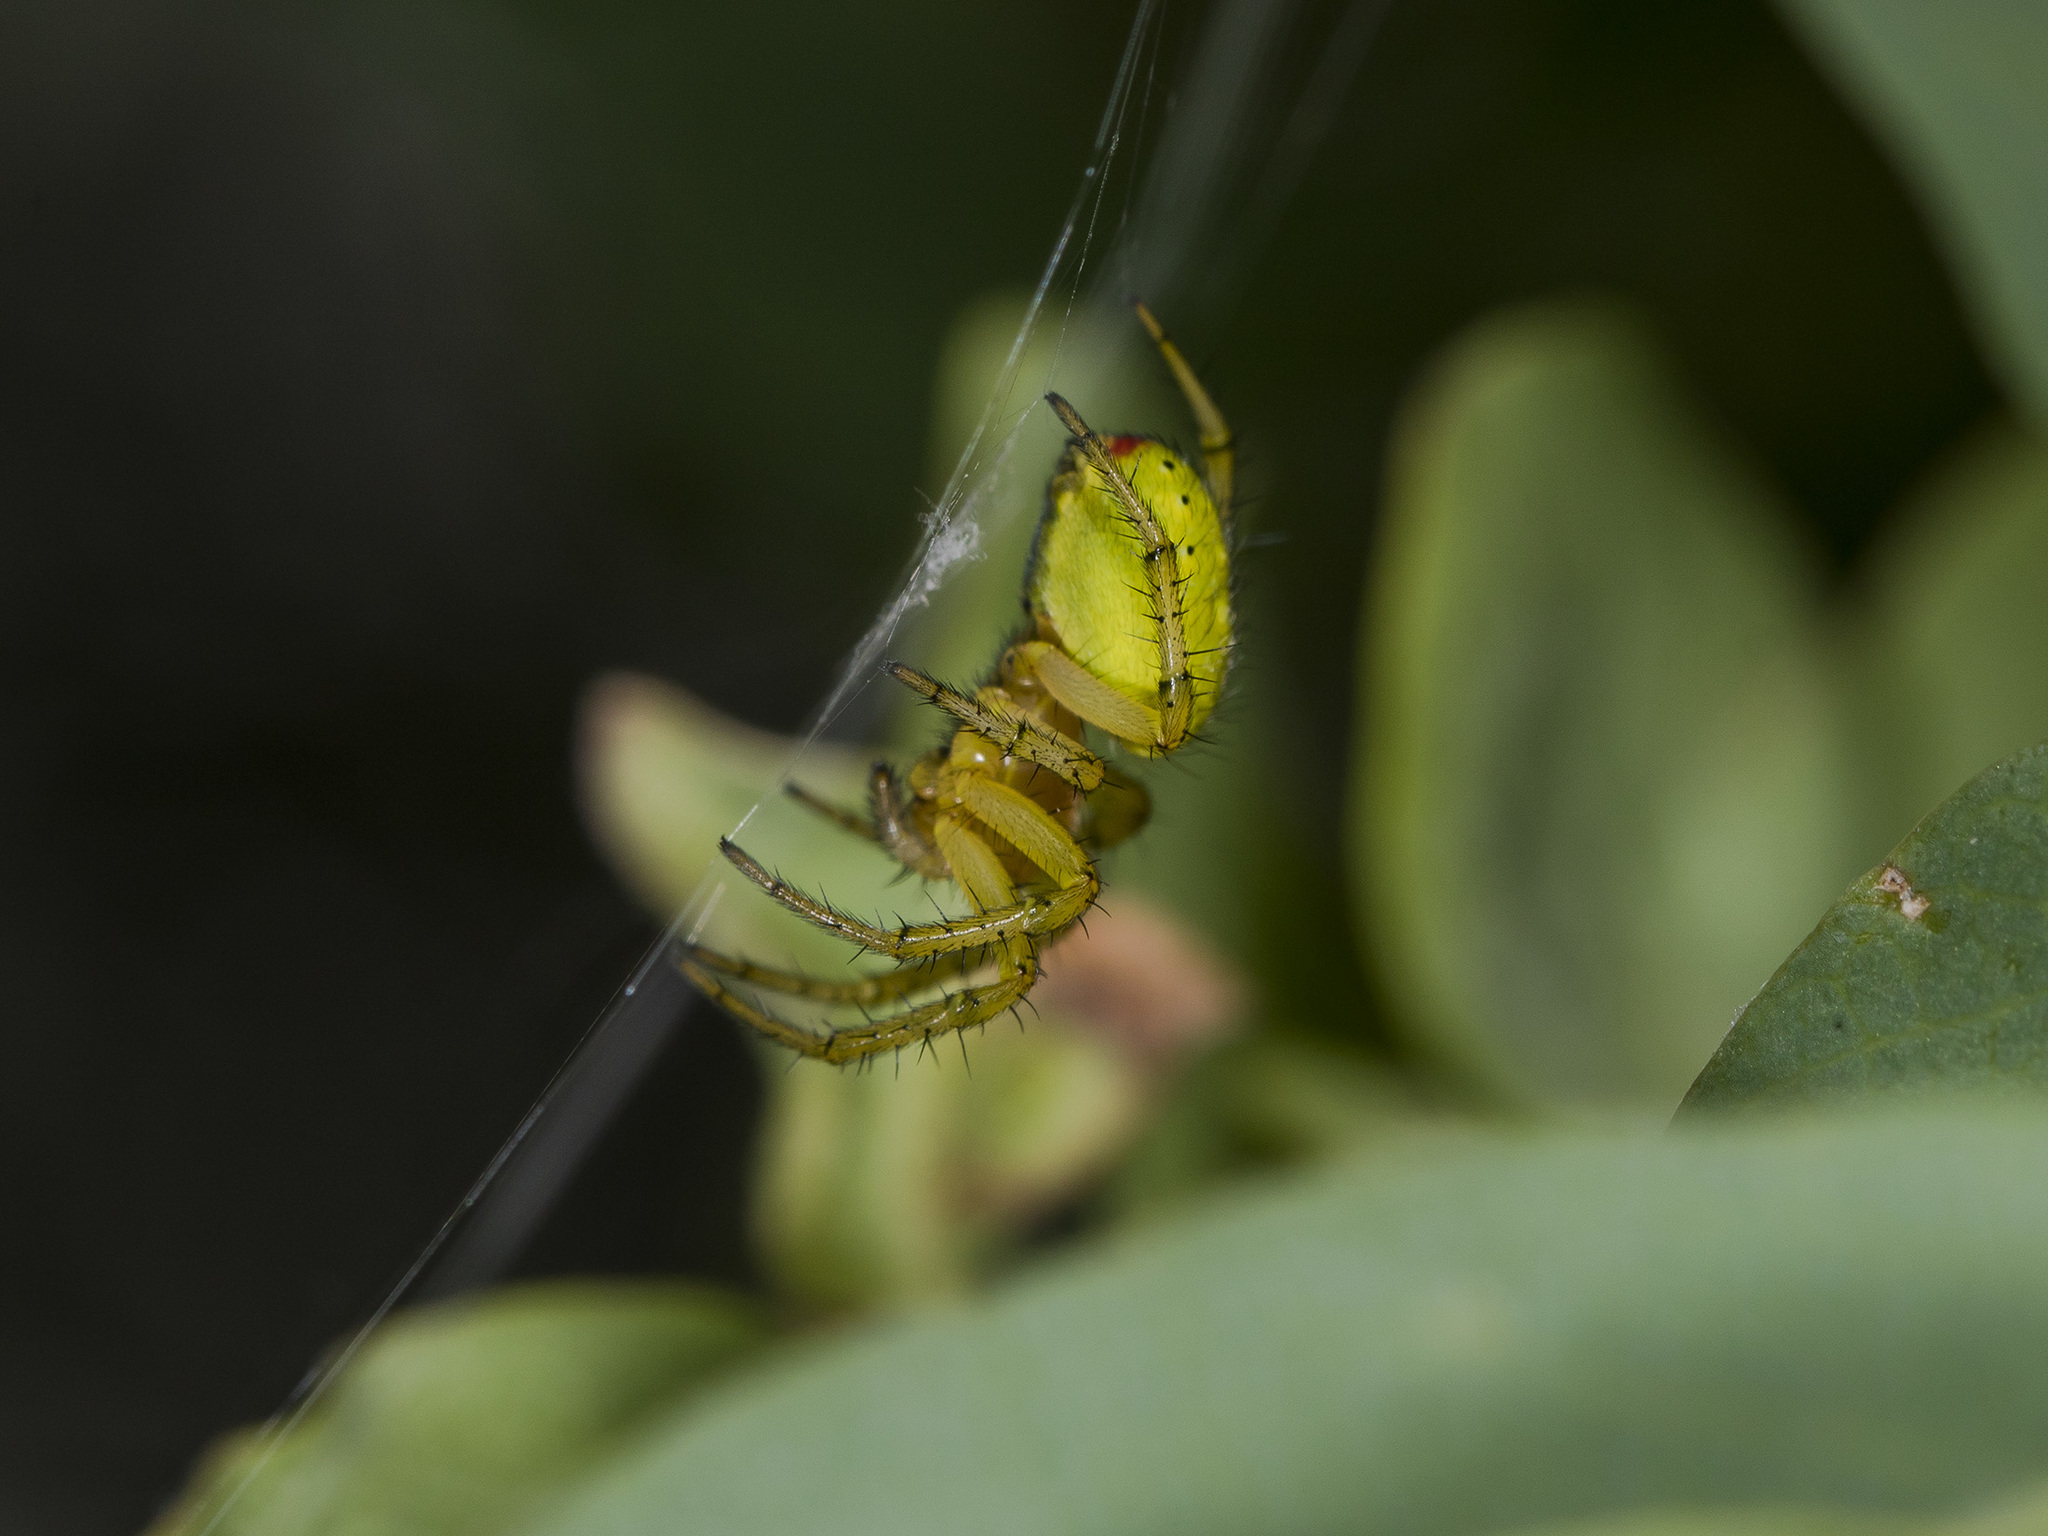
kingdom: Animalia
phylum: Arthropoda
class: Arachnida
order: Araneae
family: Araneidae
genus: Araniella
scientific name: Araniella villanii
